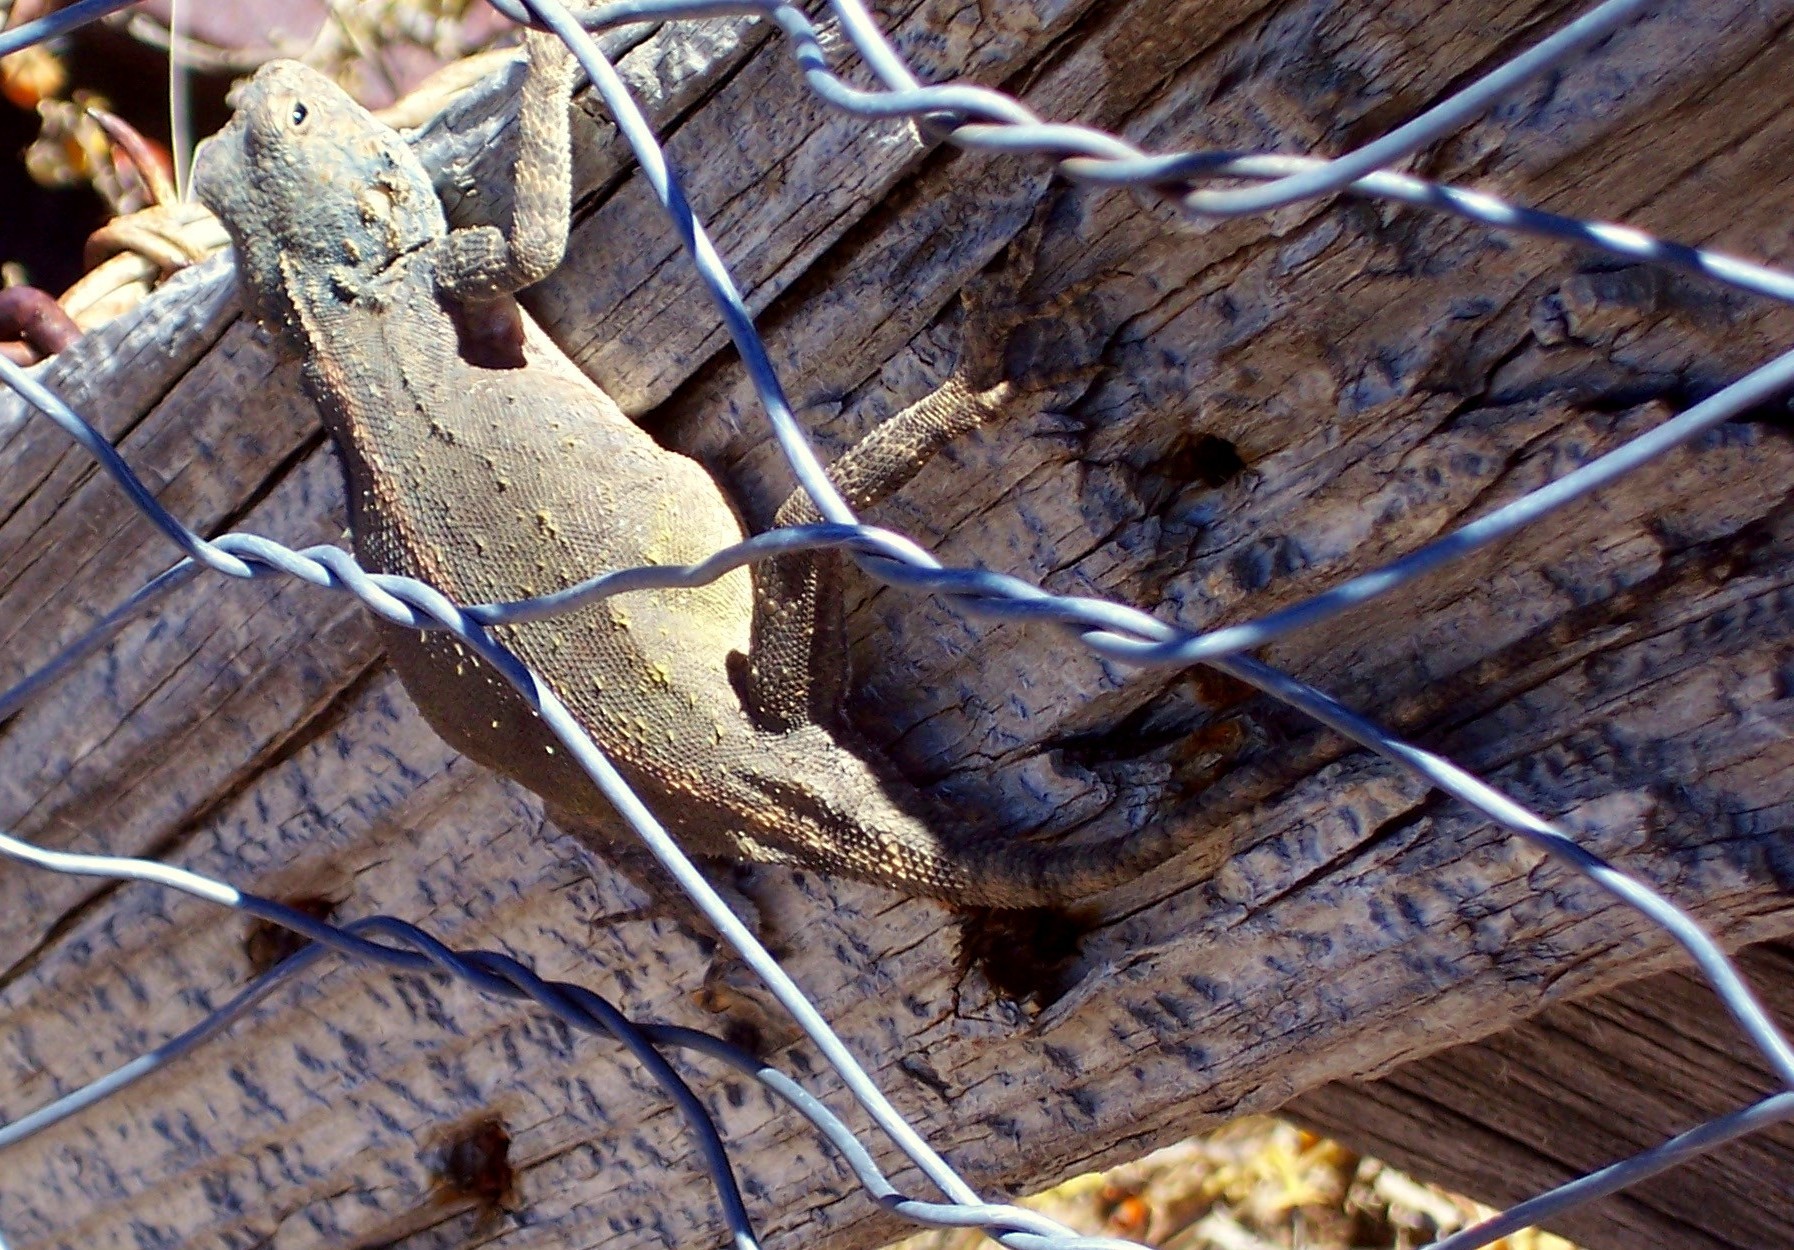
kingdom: Animalia
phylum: Chordata
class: Squamata
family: Agamidae
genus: Agama
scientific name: Agama atra
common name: Southern african rock agama
